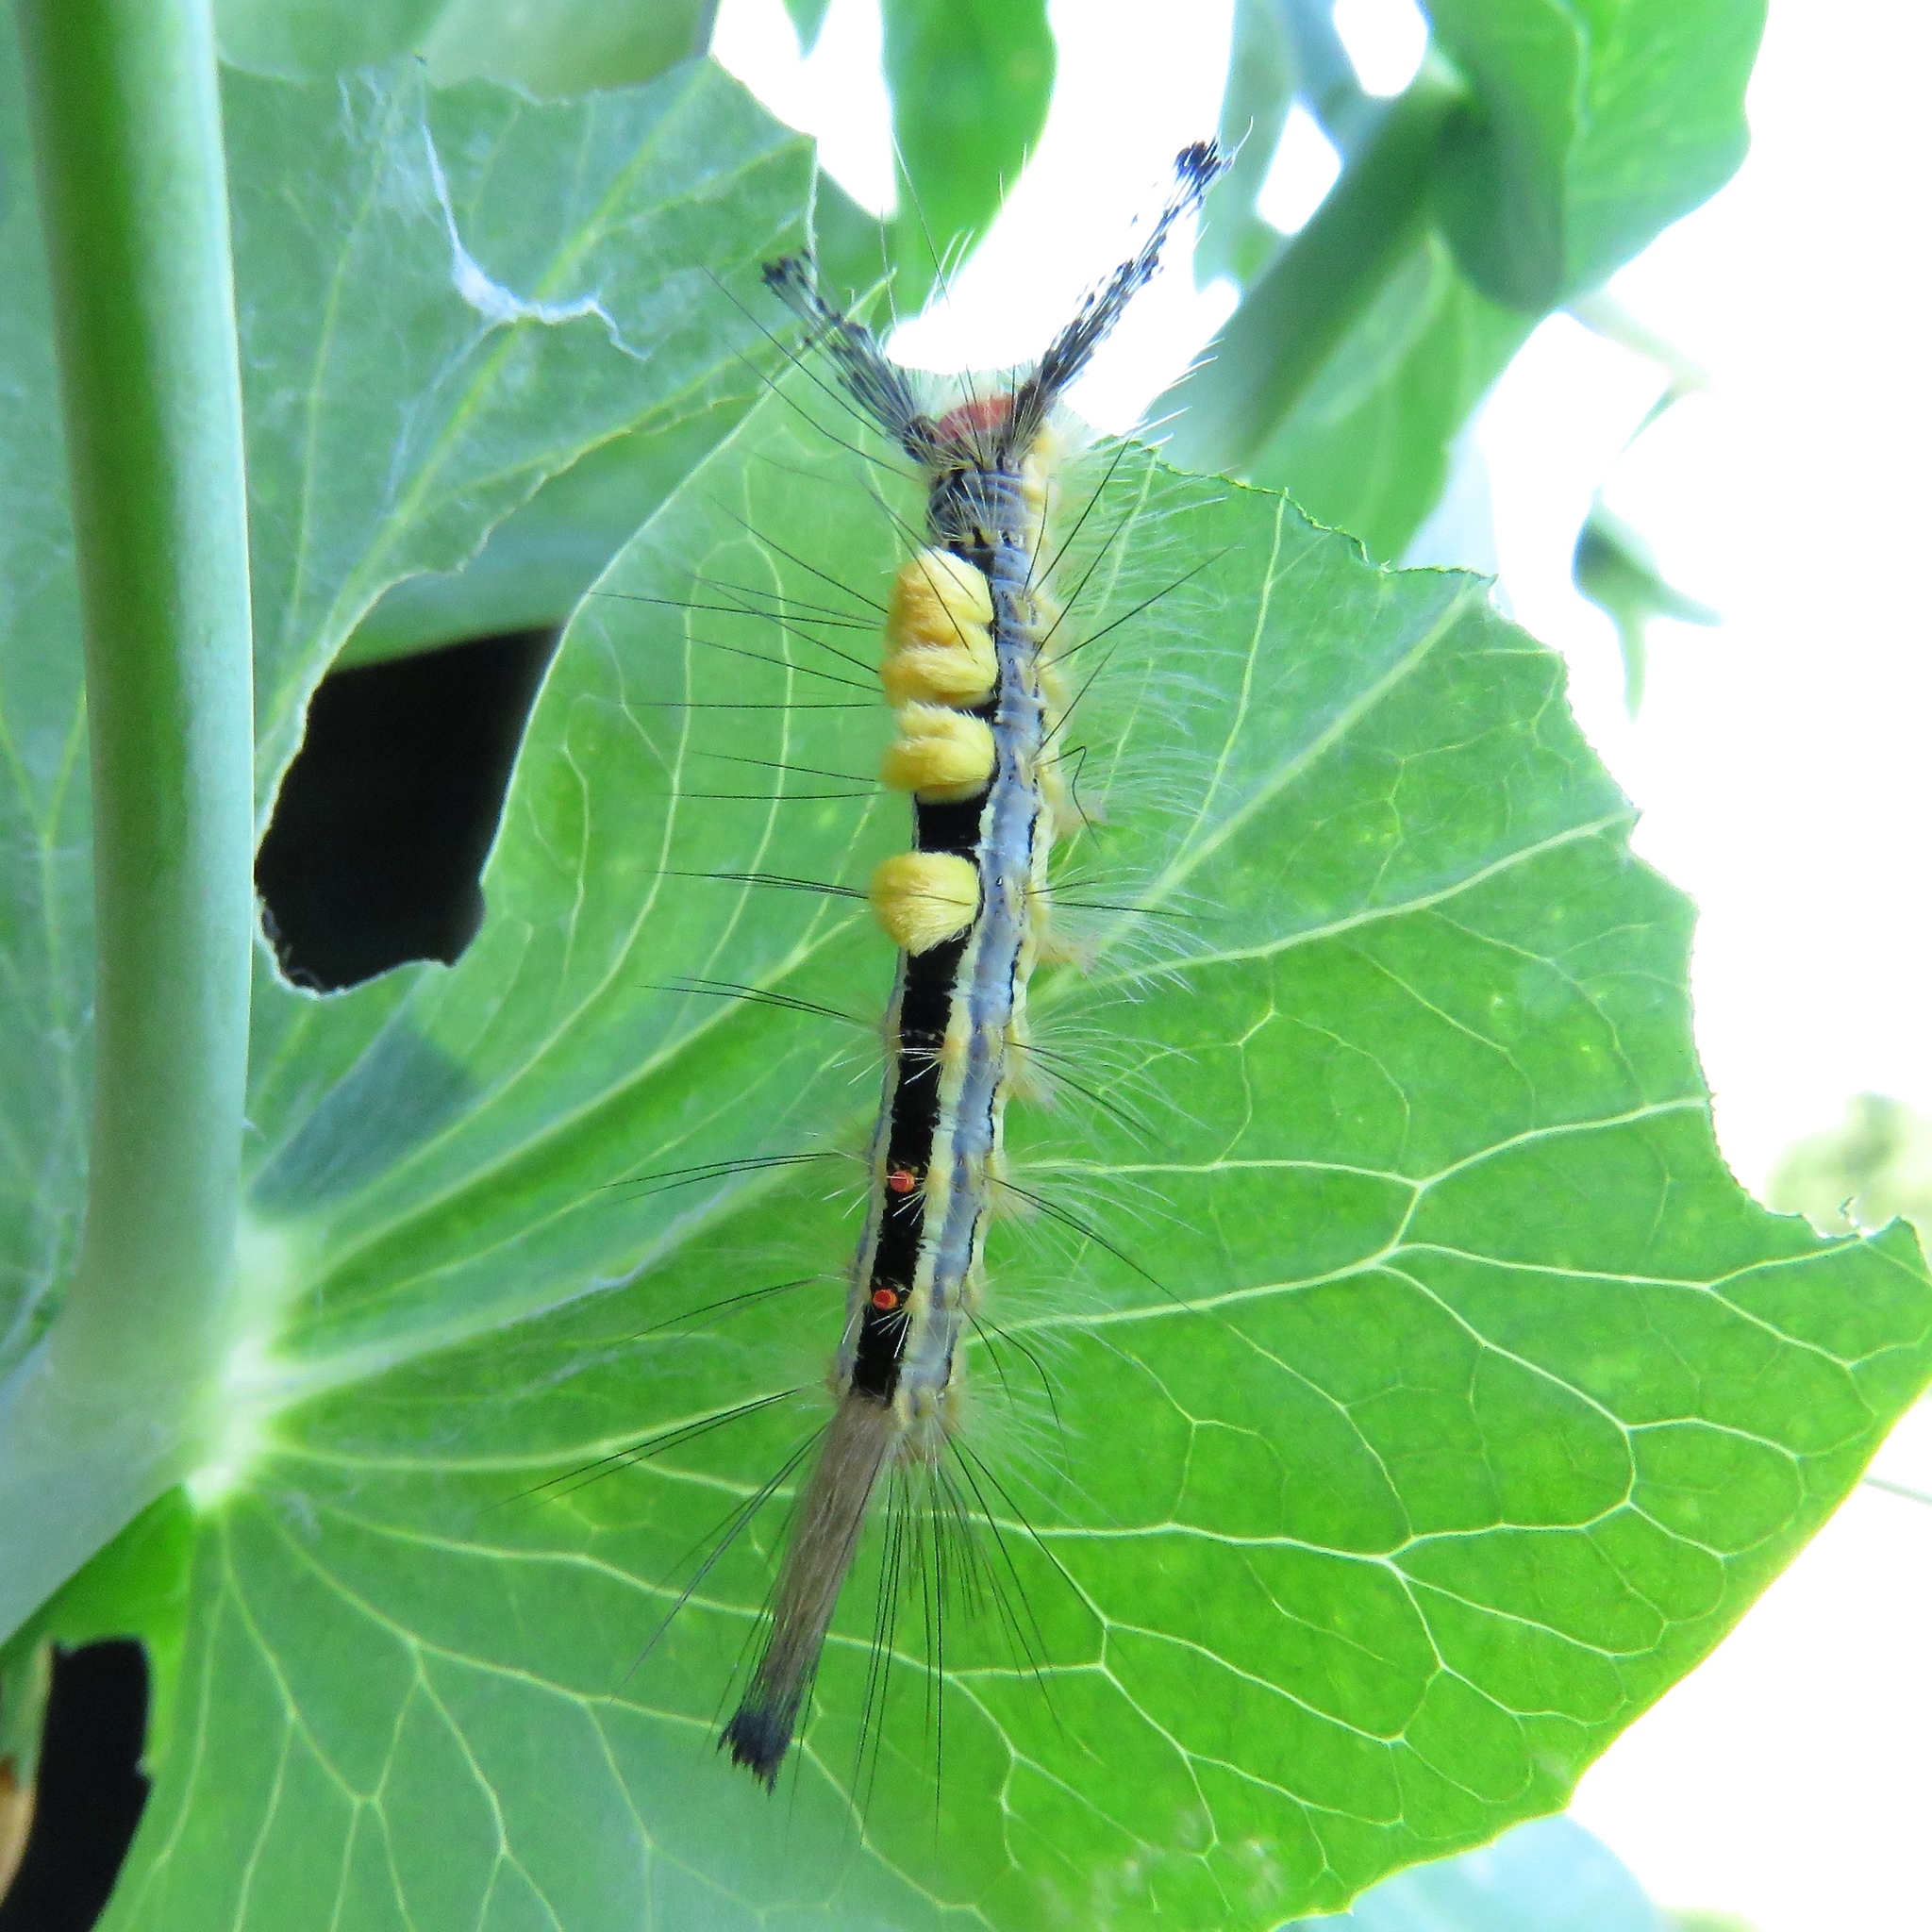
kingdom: Animalia
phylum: Arthropoda
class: Insecta
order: Lepidoptera
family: Erebidae
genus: Orgyia
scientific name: Orgyia leucostigma
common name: White-marked tussock moth
